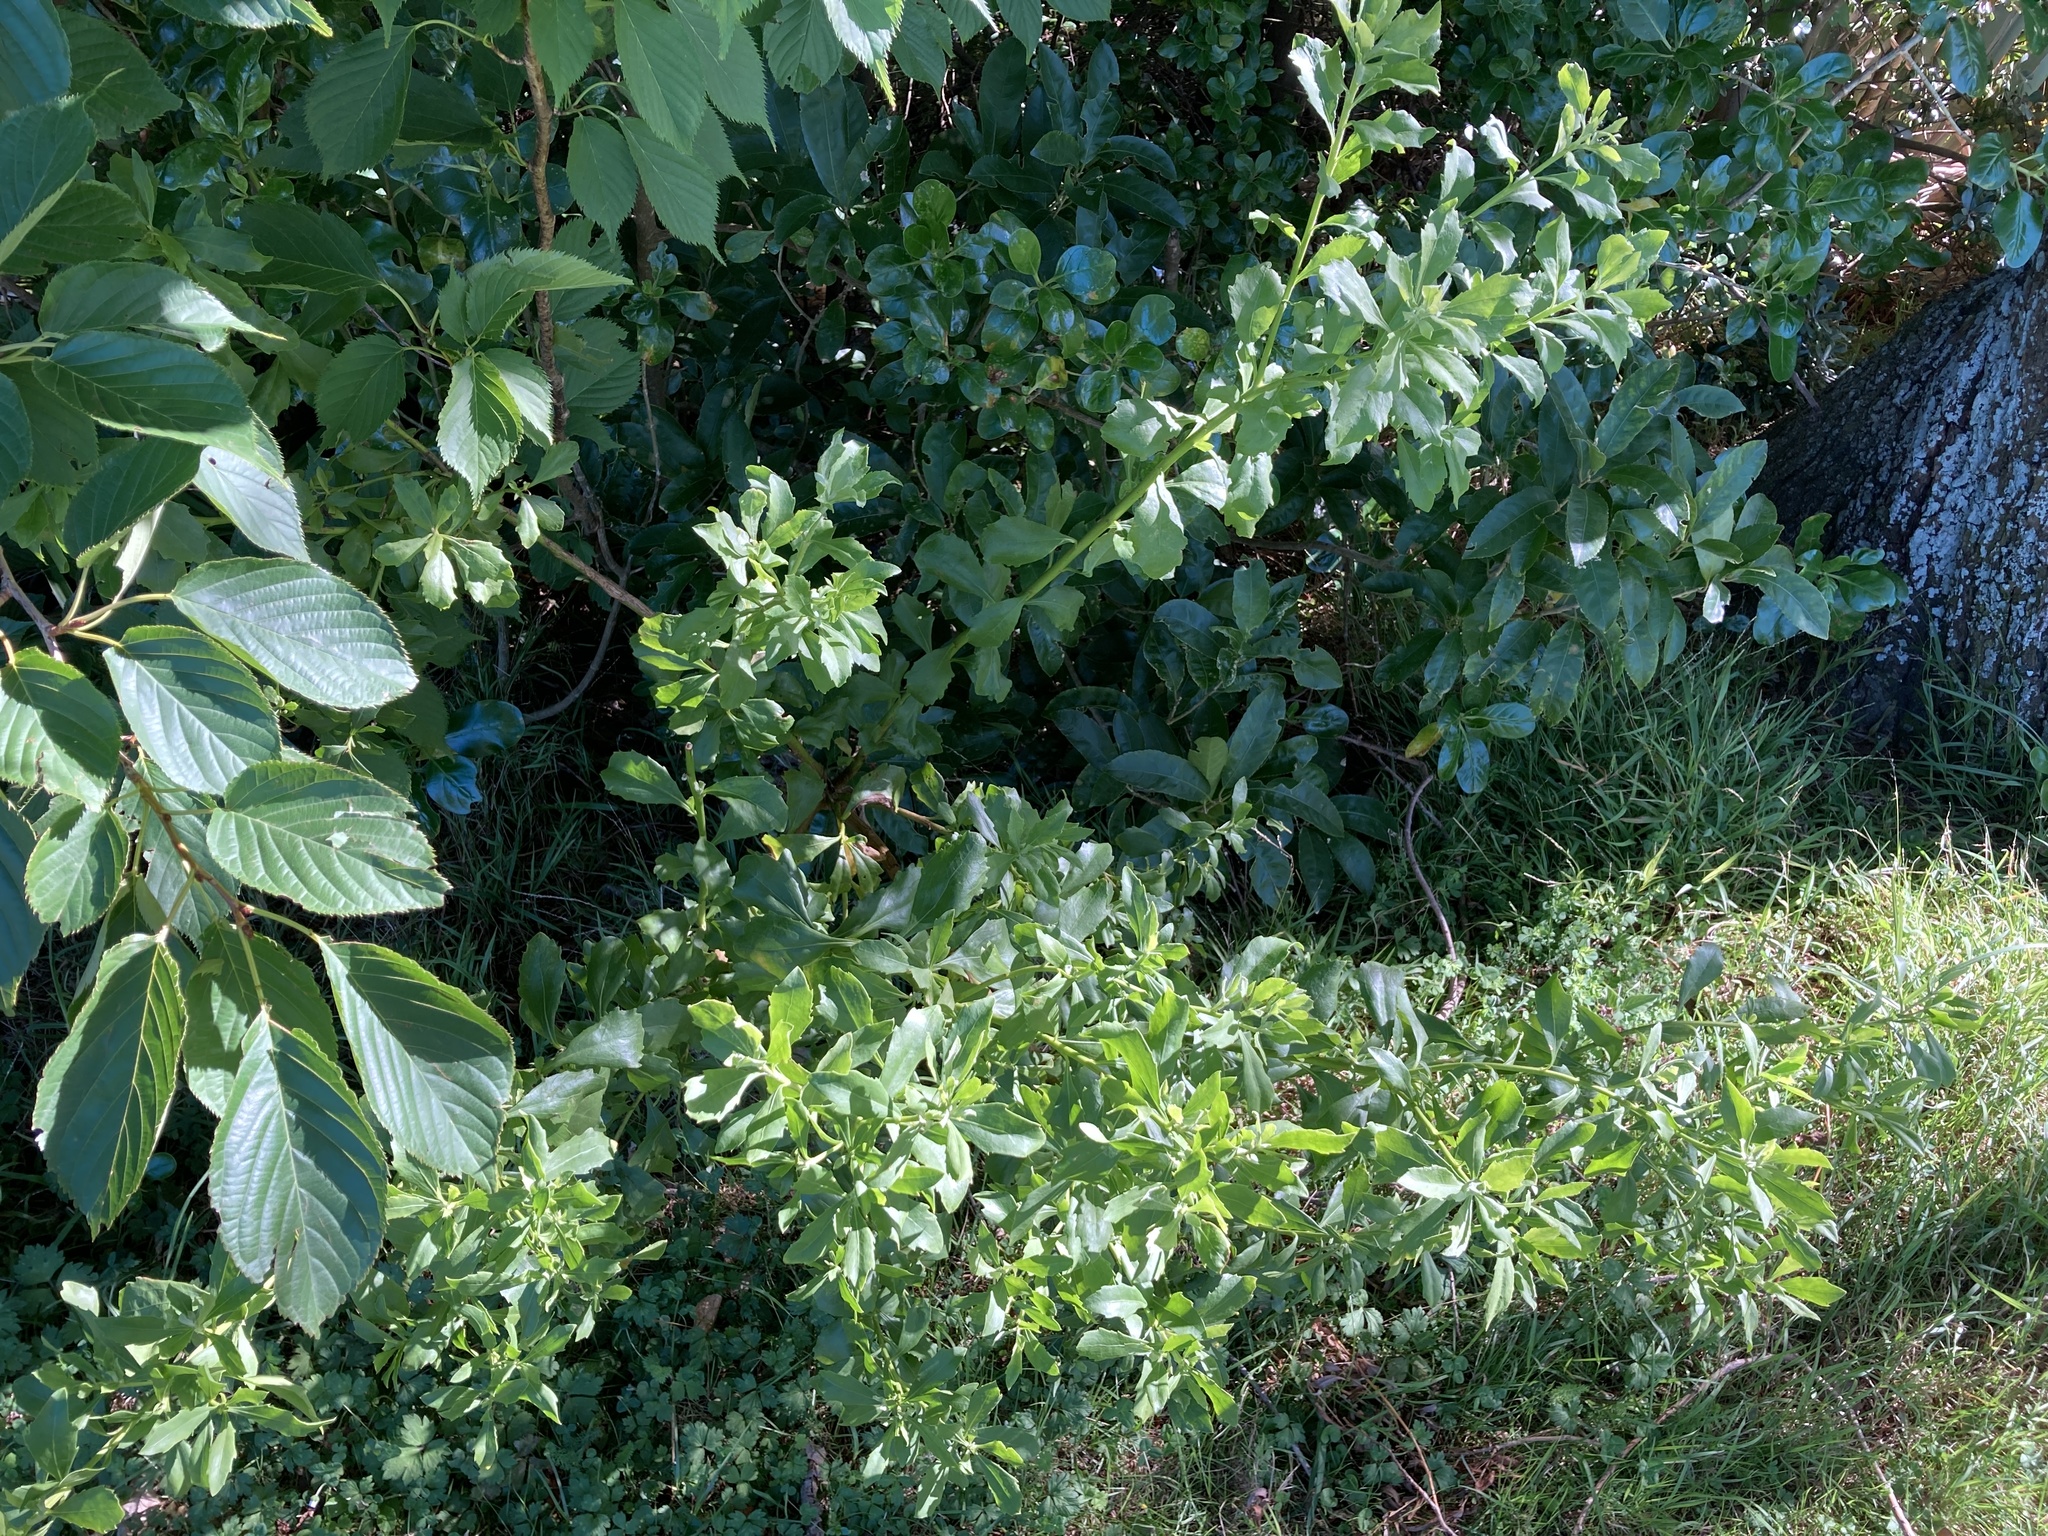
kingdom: Plantae
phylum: Tracheophyta
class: Magnoliopsida
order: Asterales
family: Asteraceae
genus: Osteospermum
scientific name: Osteospermum moniliferum
